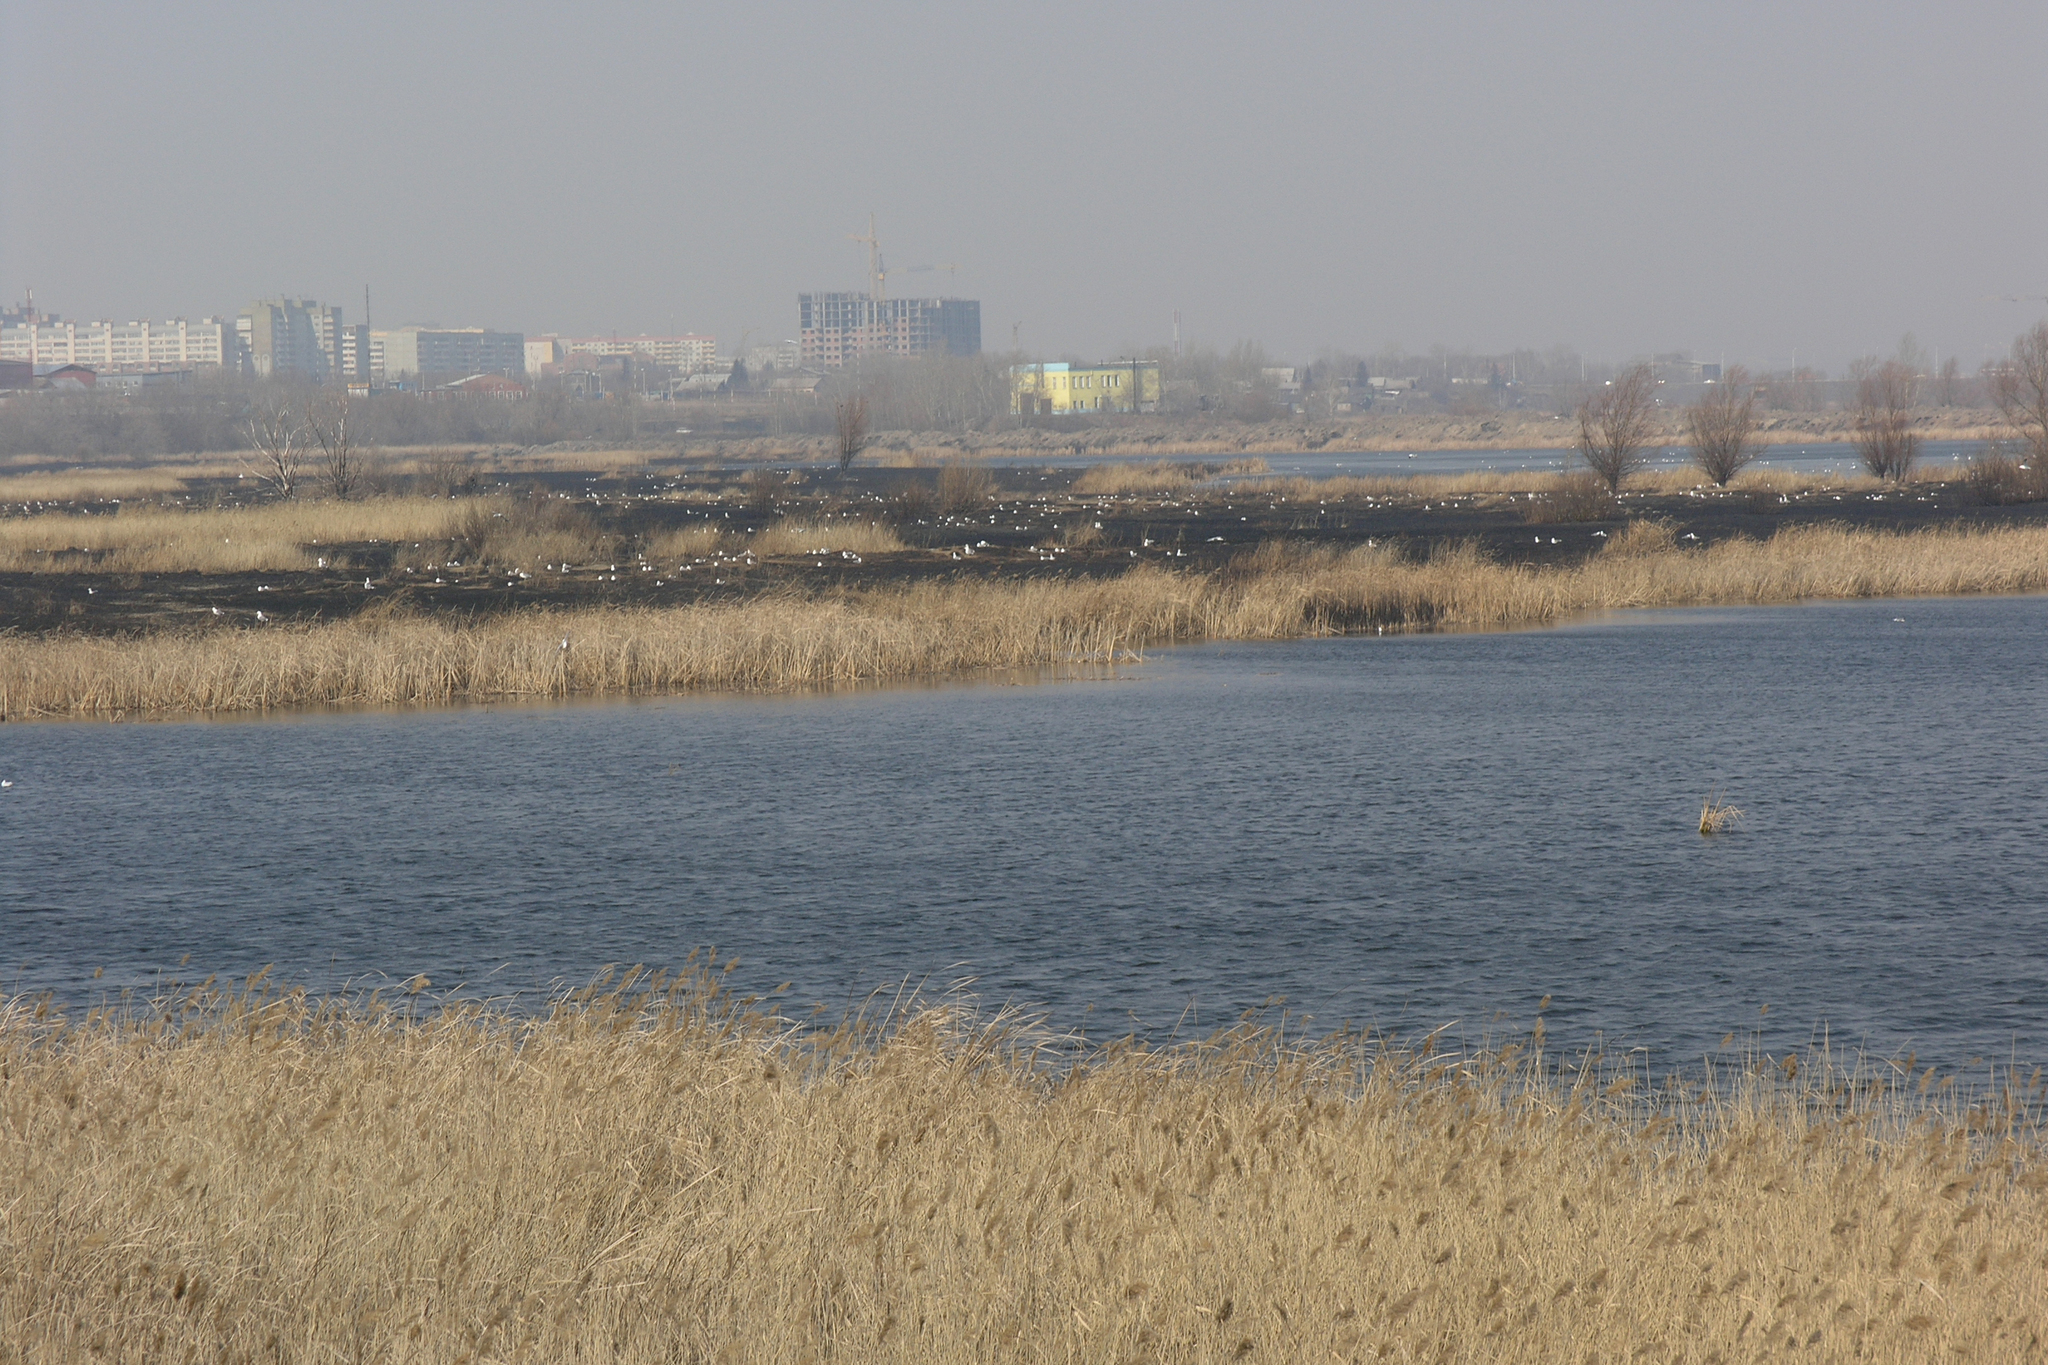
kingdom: Plantae
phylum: Tracheophyta
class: Liliopsida
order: Poales
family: Poaceae
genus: Phragmites
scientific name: Phragmites australis
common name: Common reed
